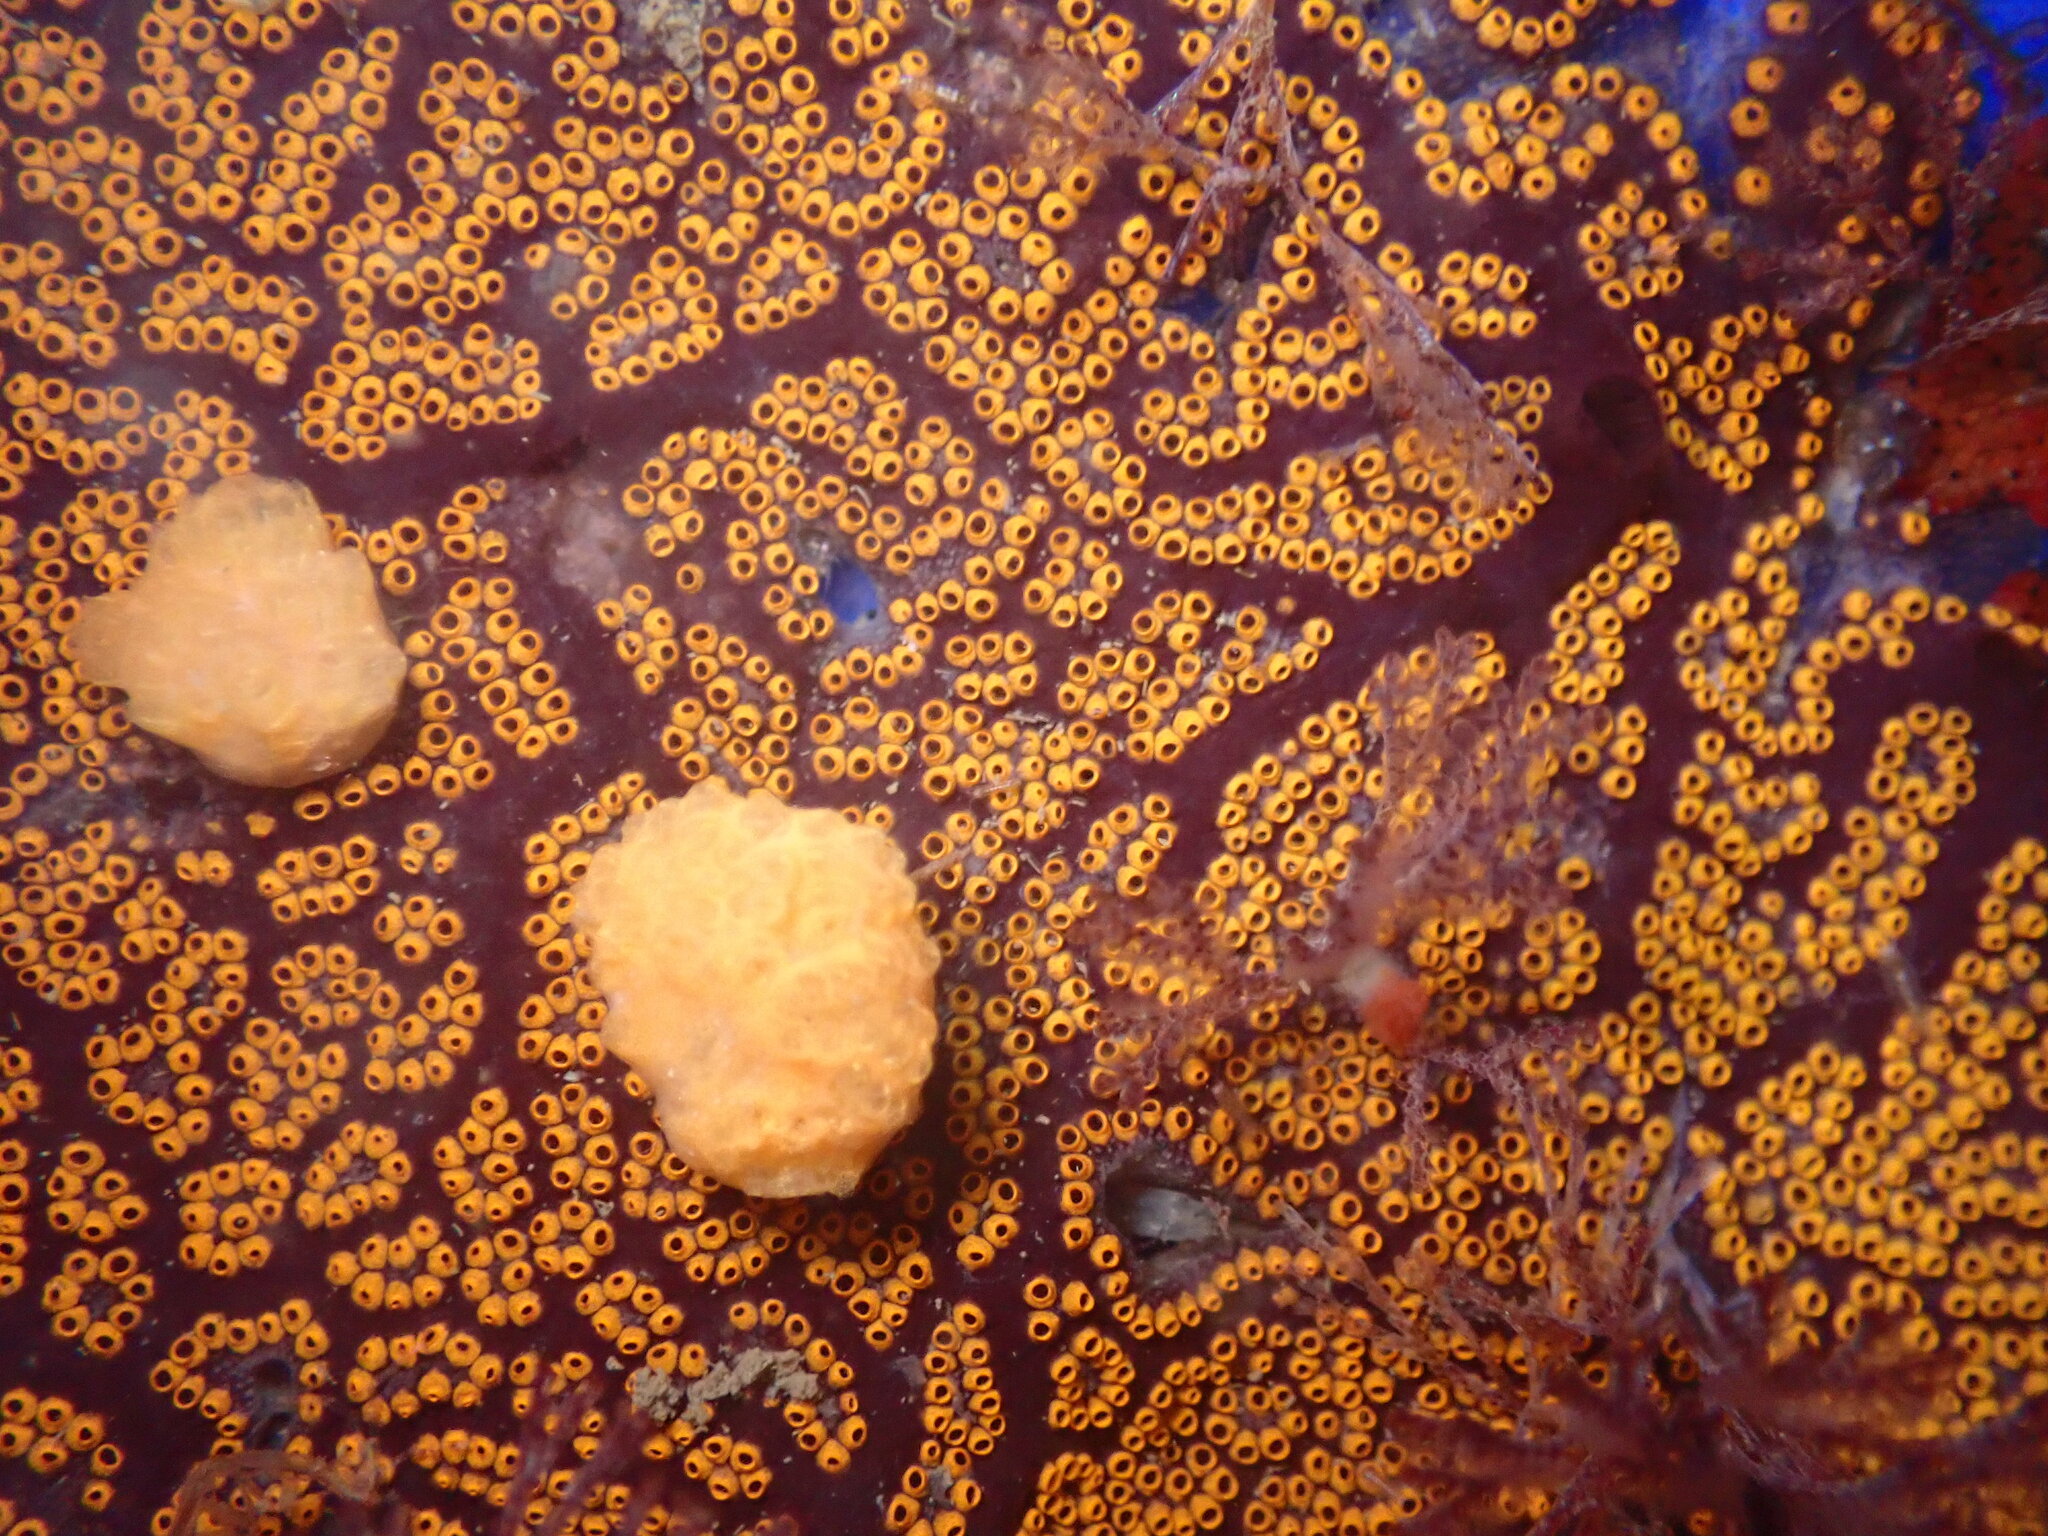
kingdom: Animalia
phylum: Chordata
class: Ascidiacea
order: Stolidobranchia
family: Styelidae
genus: Botrylloides
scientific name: Botrylloides diegensis
